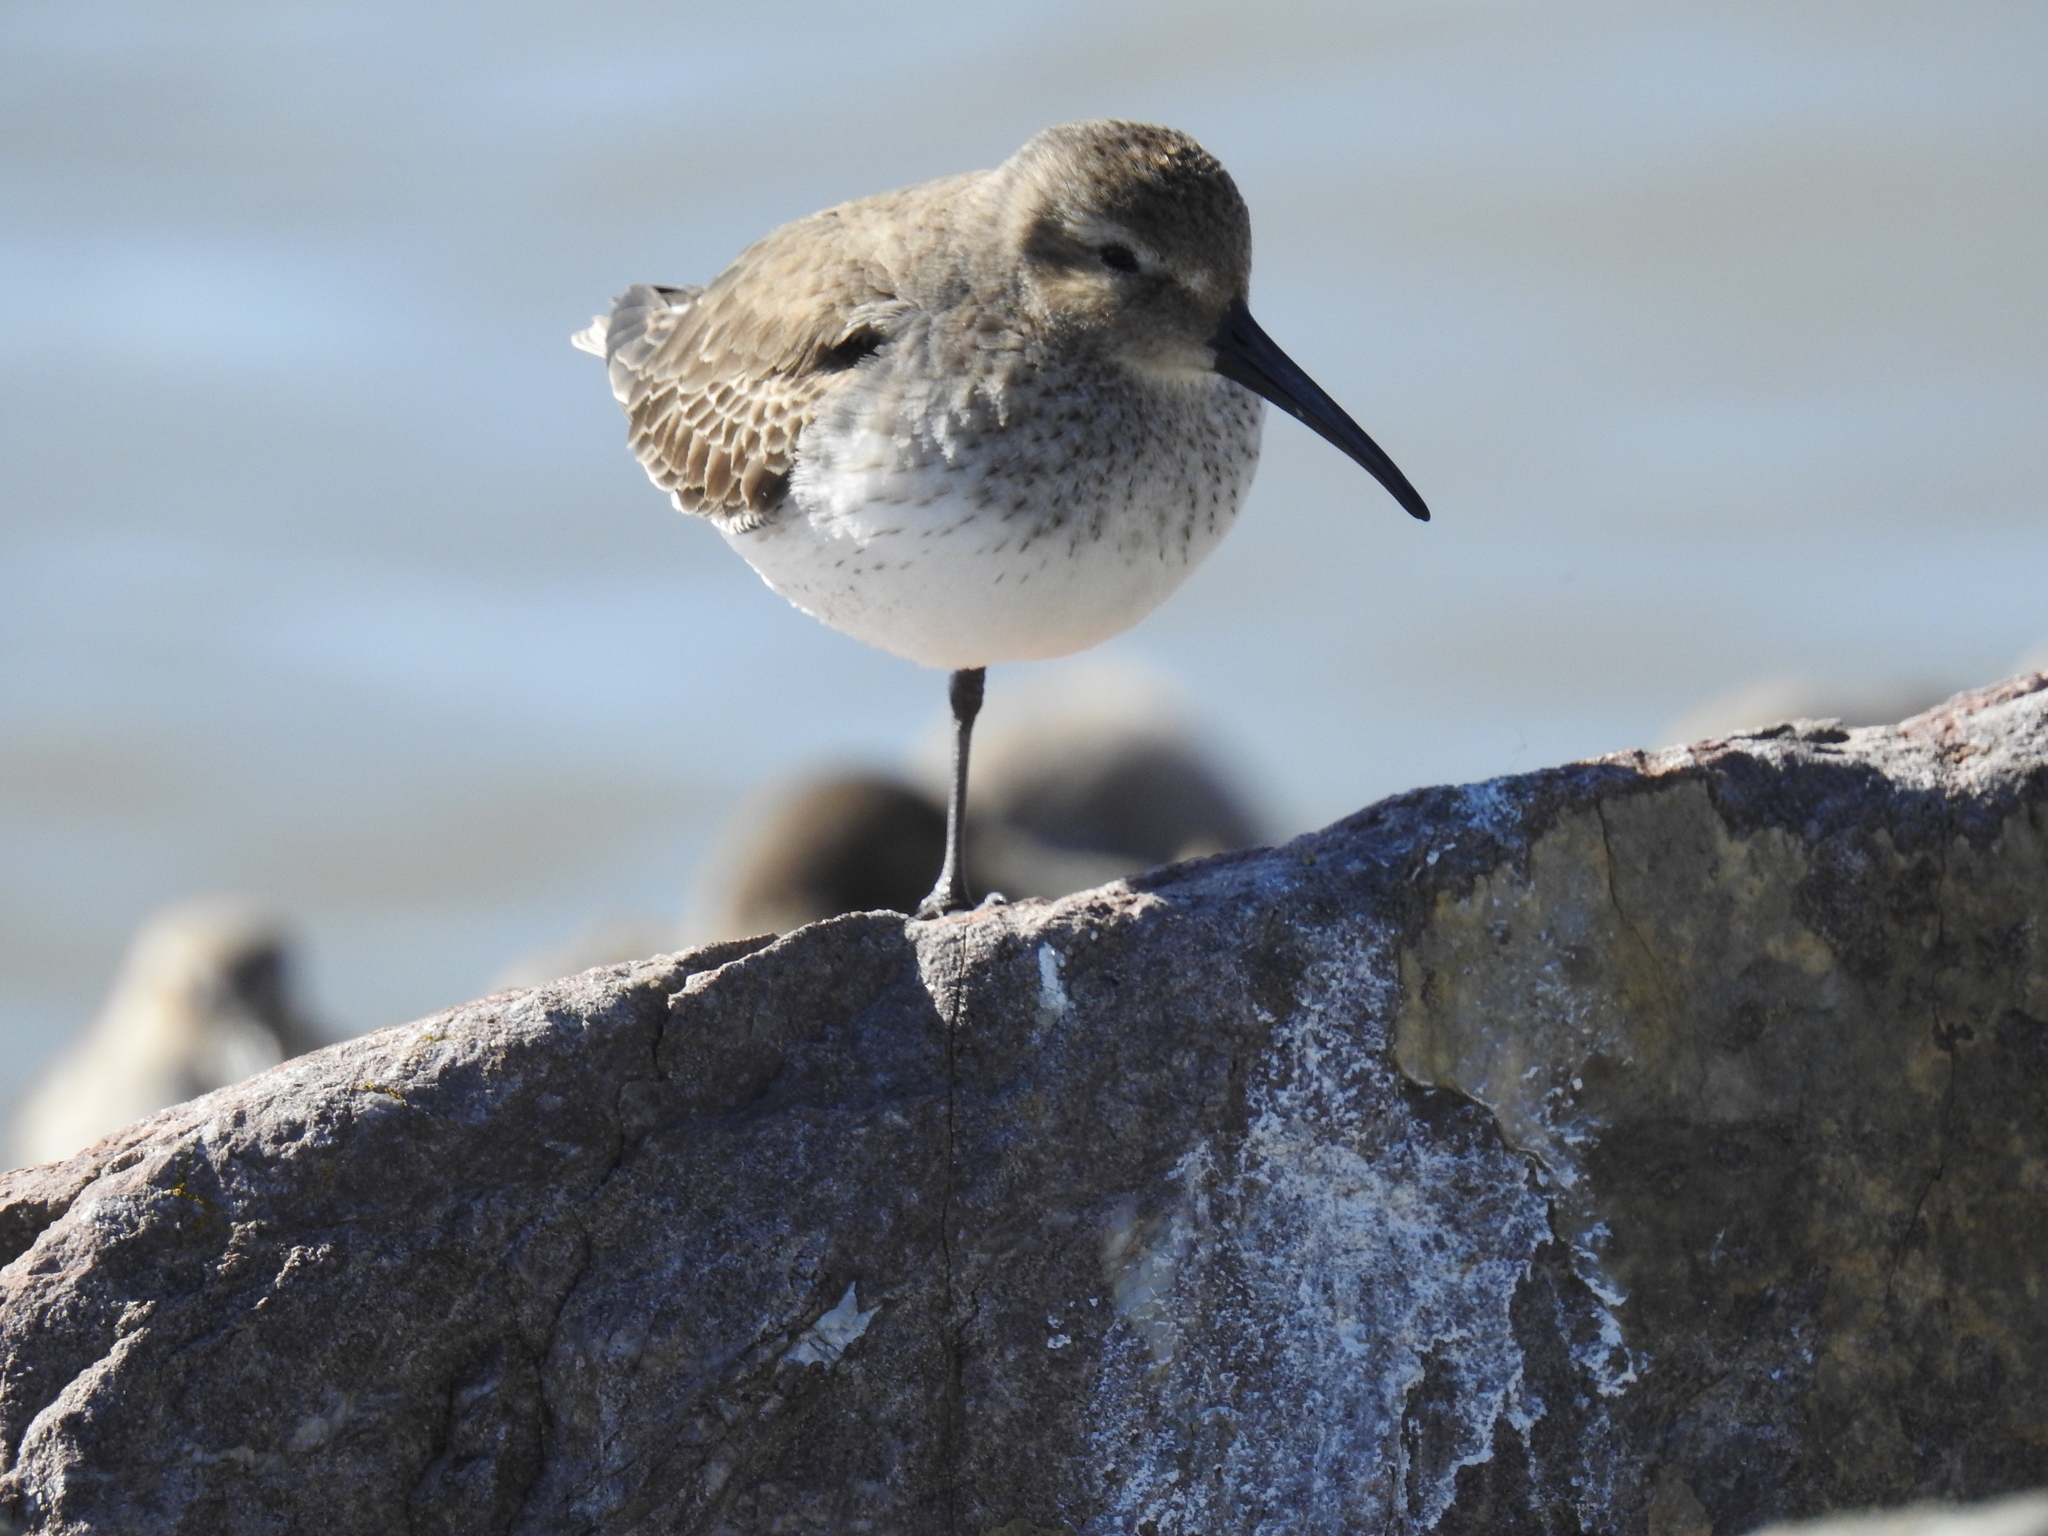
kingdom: Animalia
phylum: Chordata
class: Aves
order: Charadriiformes
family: Scolopacidae
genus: Calidris
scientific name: Calidris alpina
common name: Dunlin
